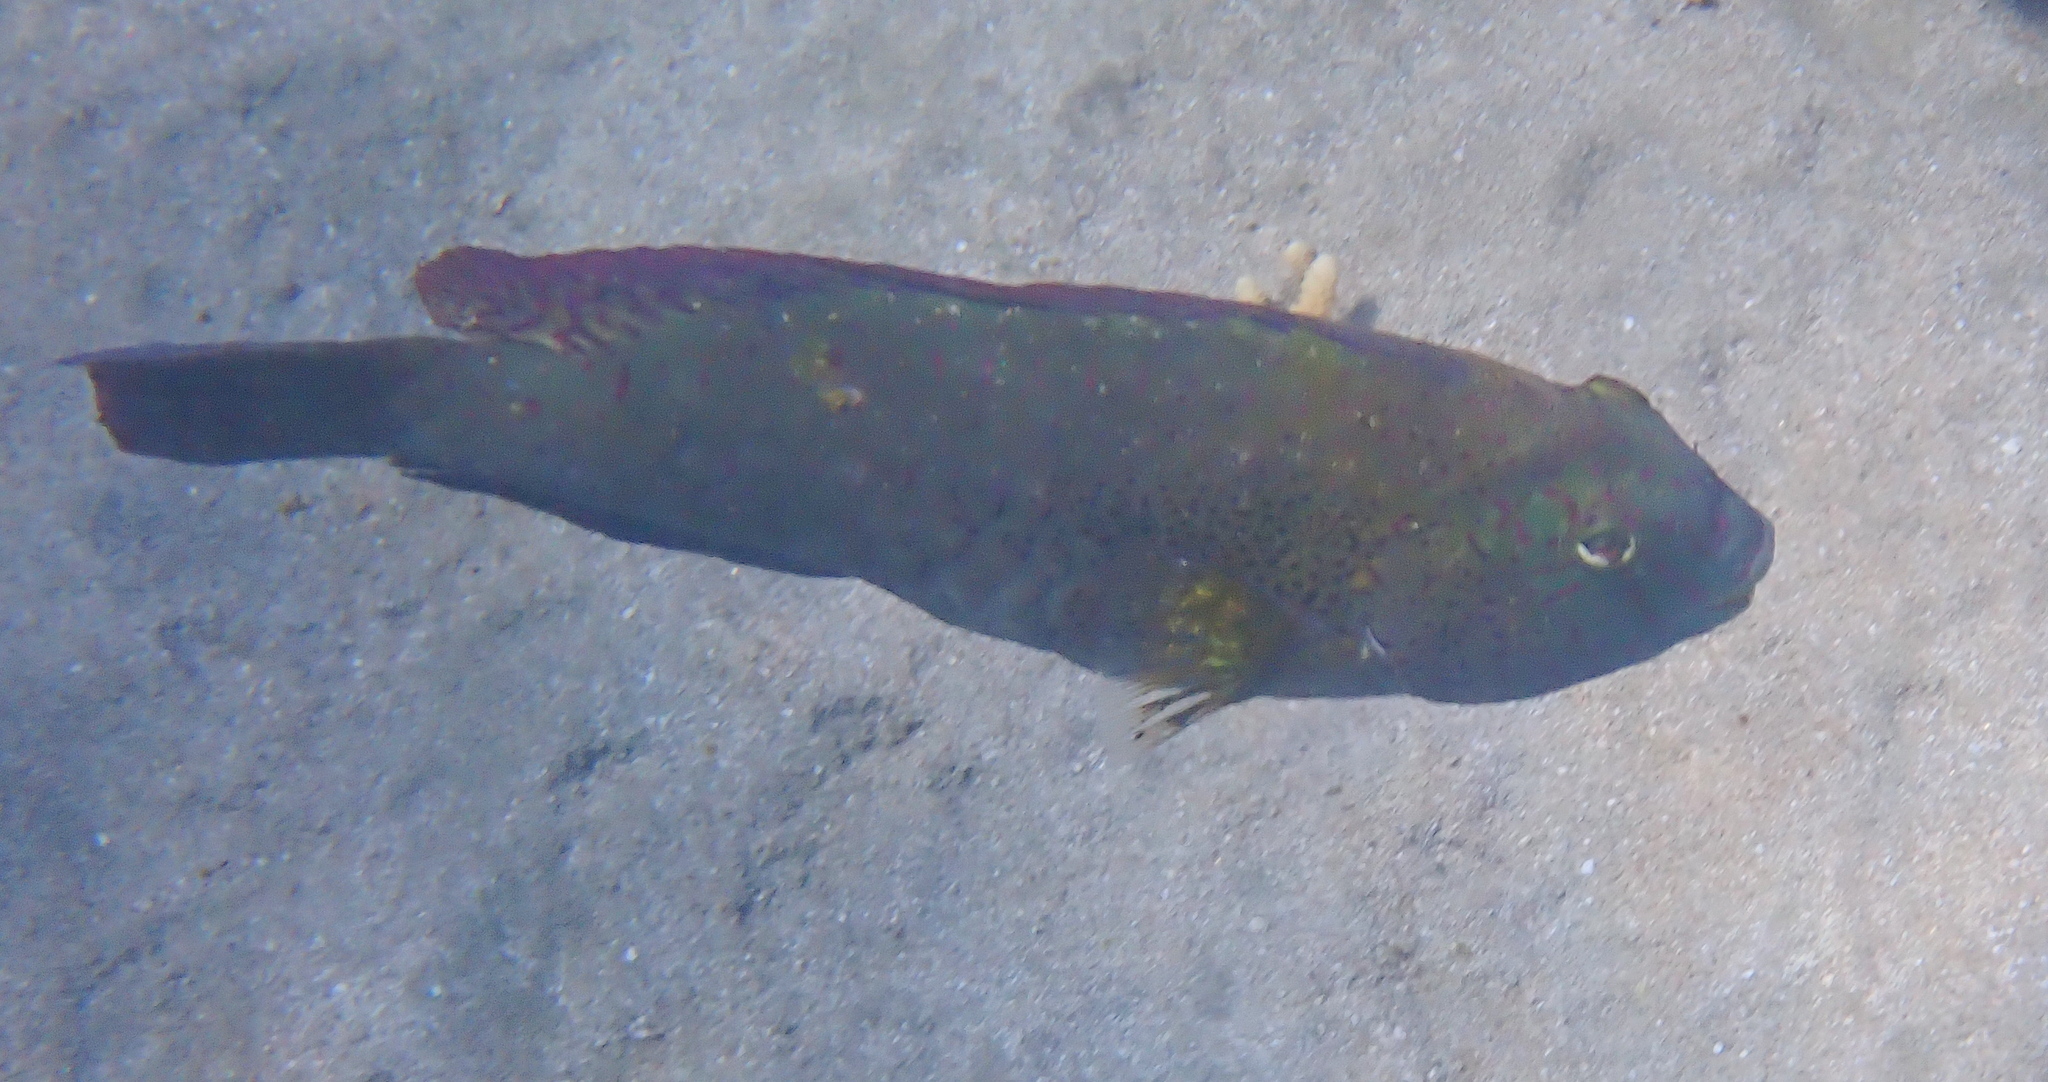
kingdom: Animalia
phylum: Chordata
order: Perciformes
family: Scaridae
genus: Calotomus
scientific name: Calotomus viridescens
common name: Dotted parrotfish
